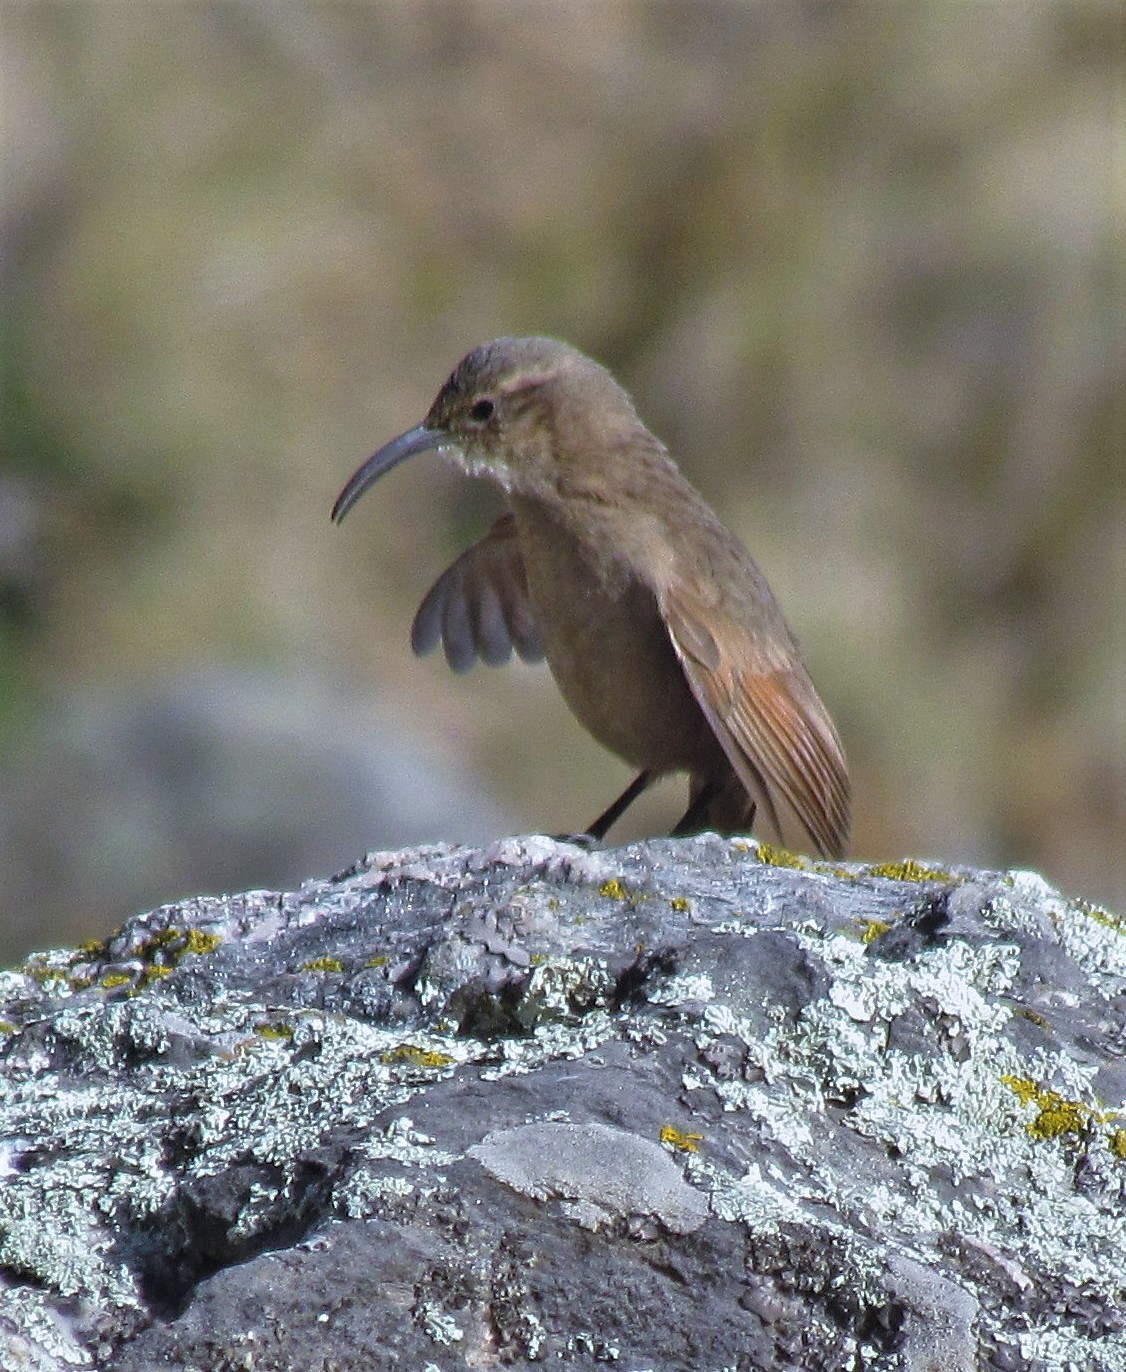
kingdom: Animalia
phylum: Chordata
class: Aves
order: Passeriformes
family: Furnariidae
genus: Upucerthia
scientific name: Upucerthia validirostris
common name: Buff-breasted earthcreeper
